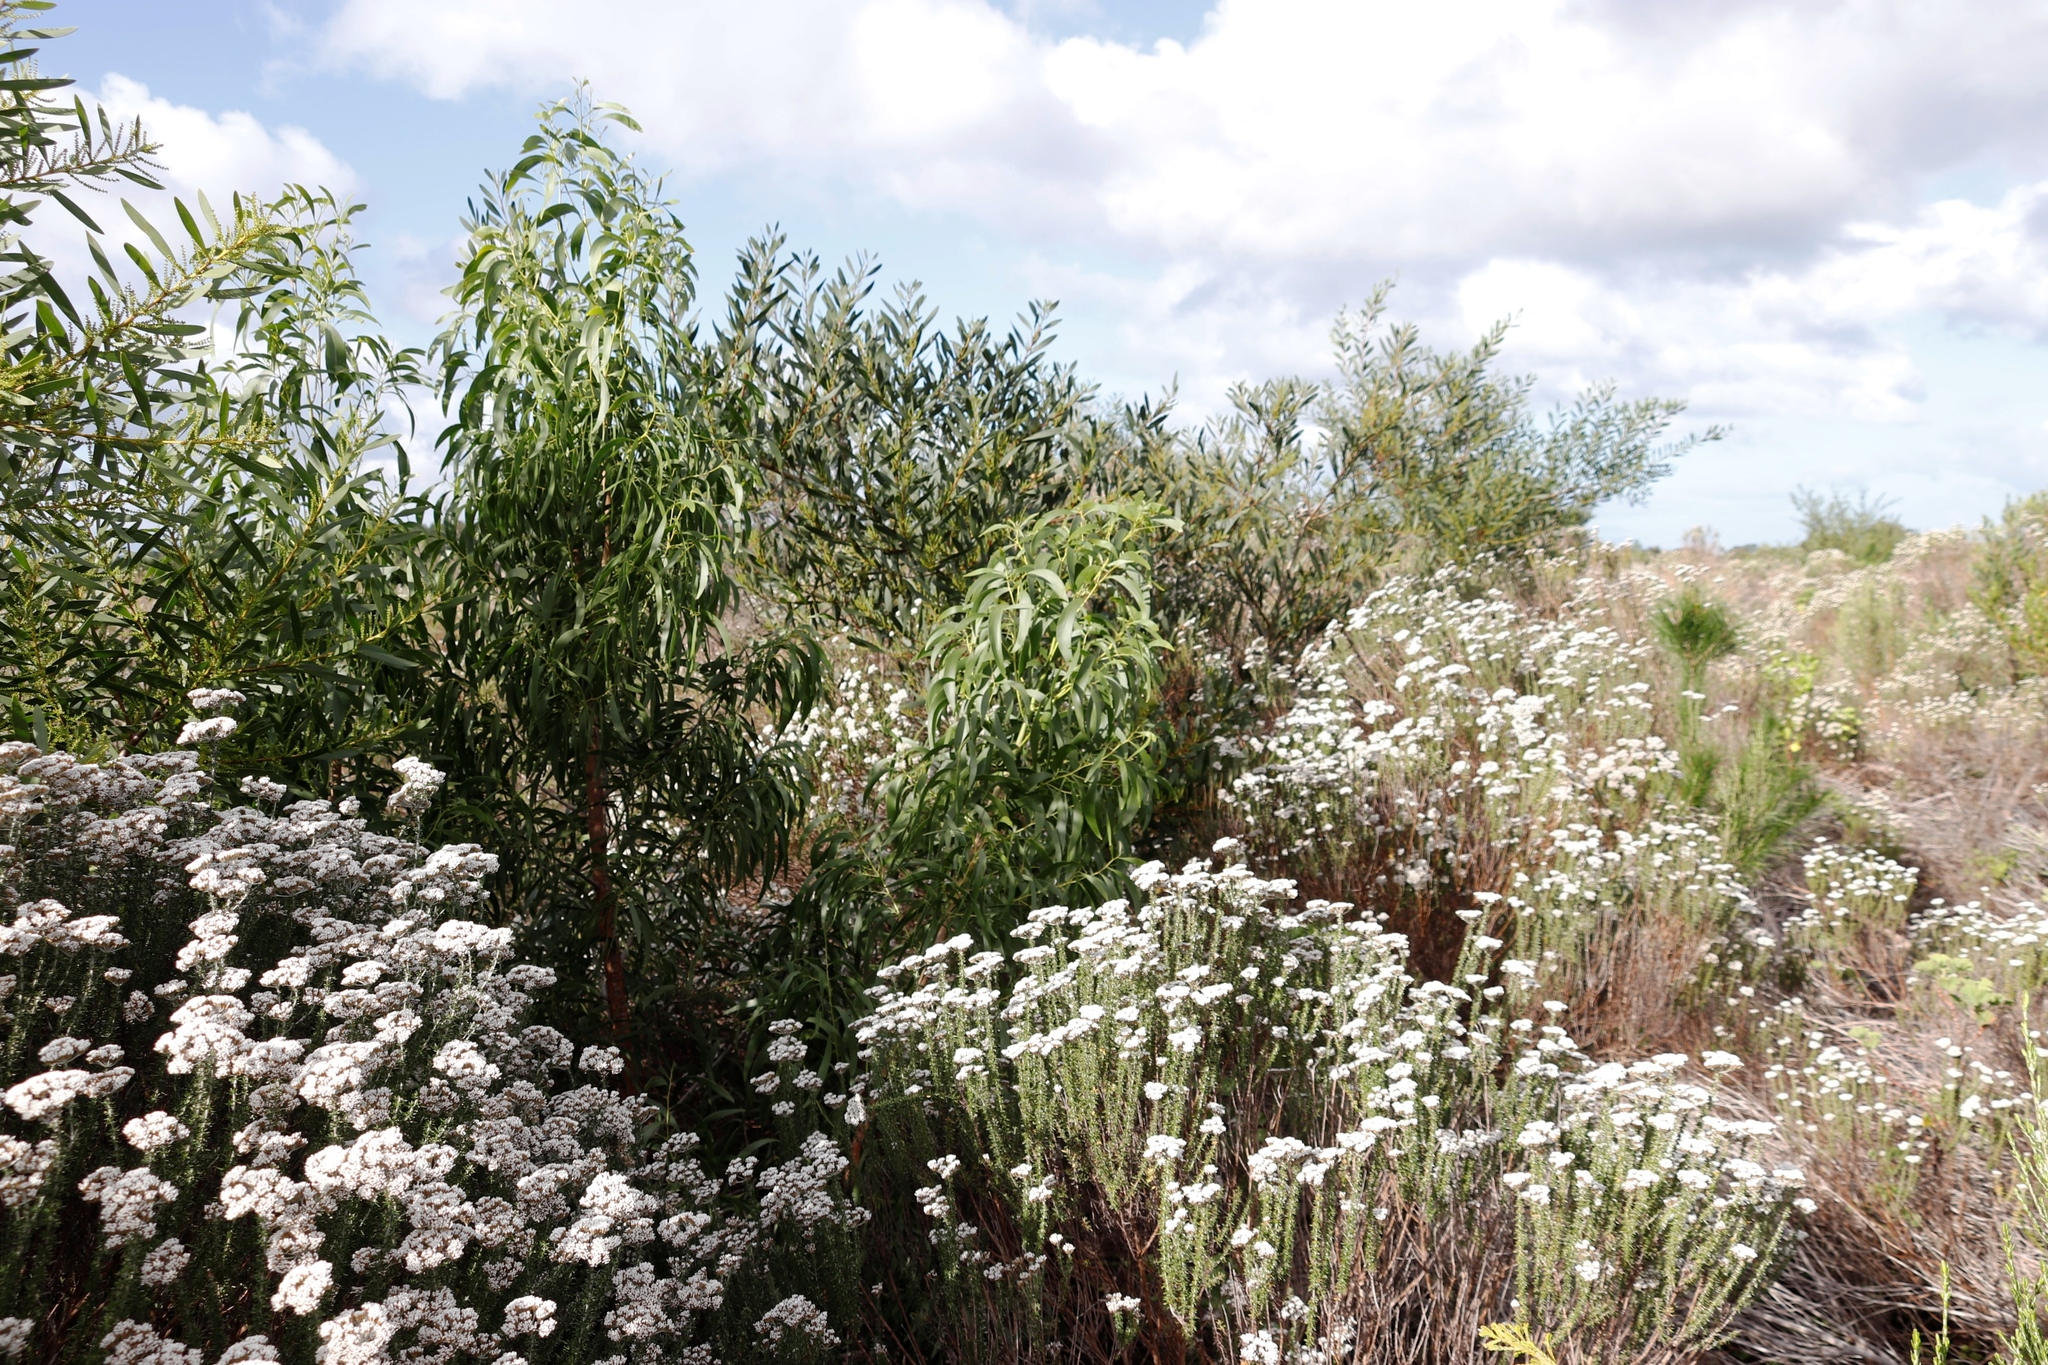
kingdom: Plantae
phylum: Tracheophyta
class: Magnoliopsida
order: Fabales
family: Fabaceae
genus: Acacia
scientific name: Acacia implexa
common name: Black wattle
